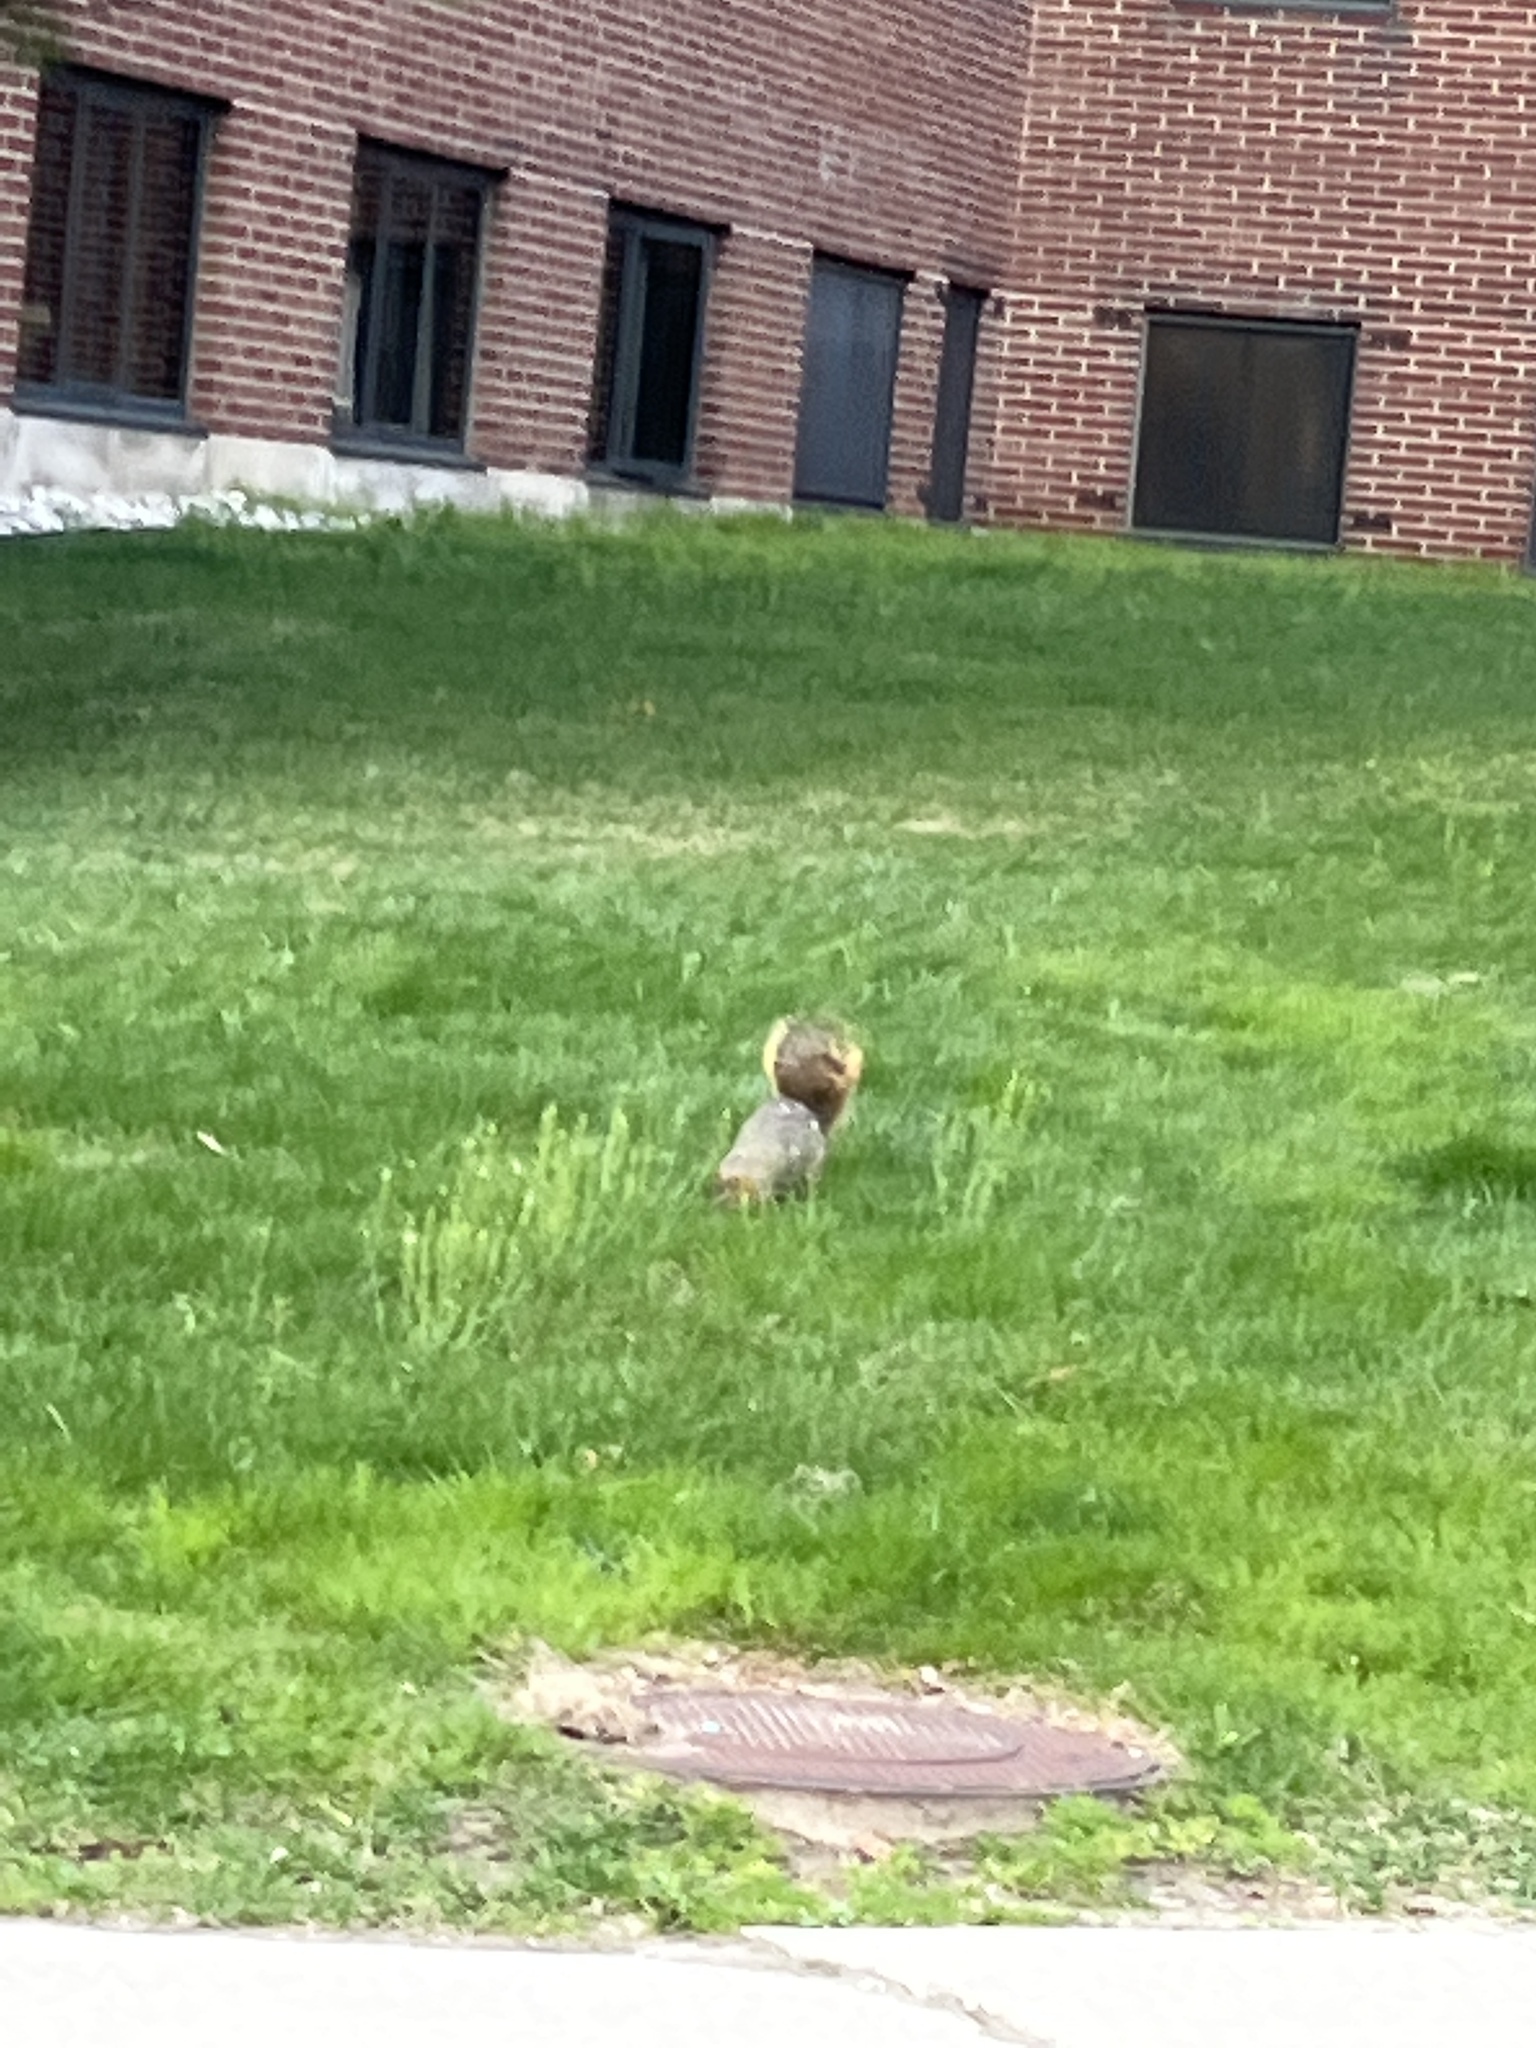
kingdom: Animalia
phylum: Chordata
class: Mammalia
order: Rodentia
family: Sciuridae
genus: Sciurus
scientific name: Sciurus niger
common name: Fox squirrel
